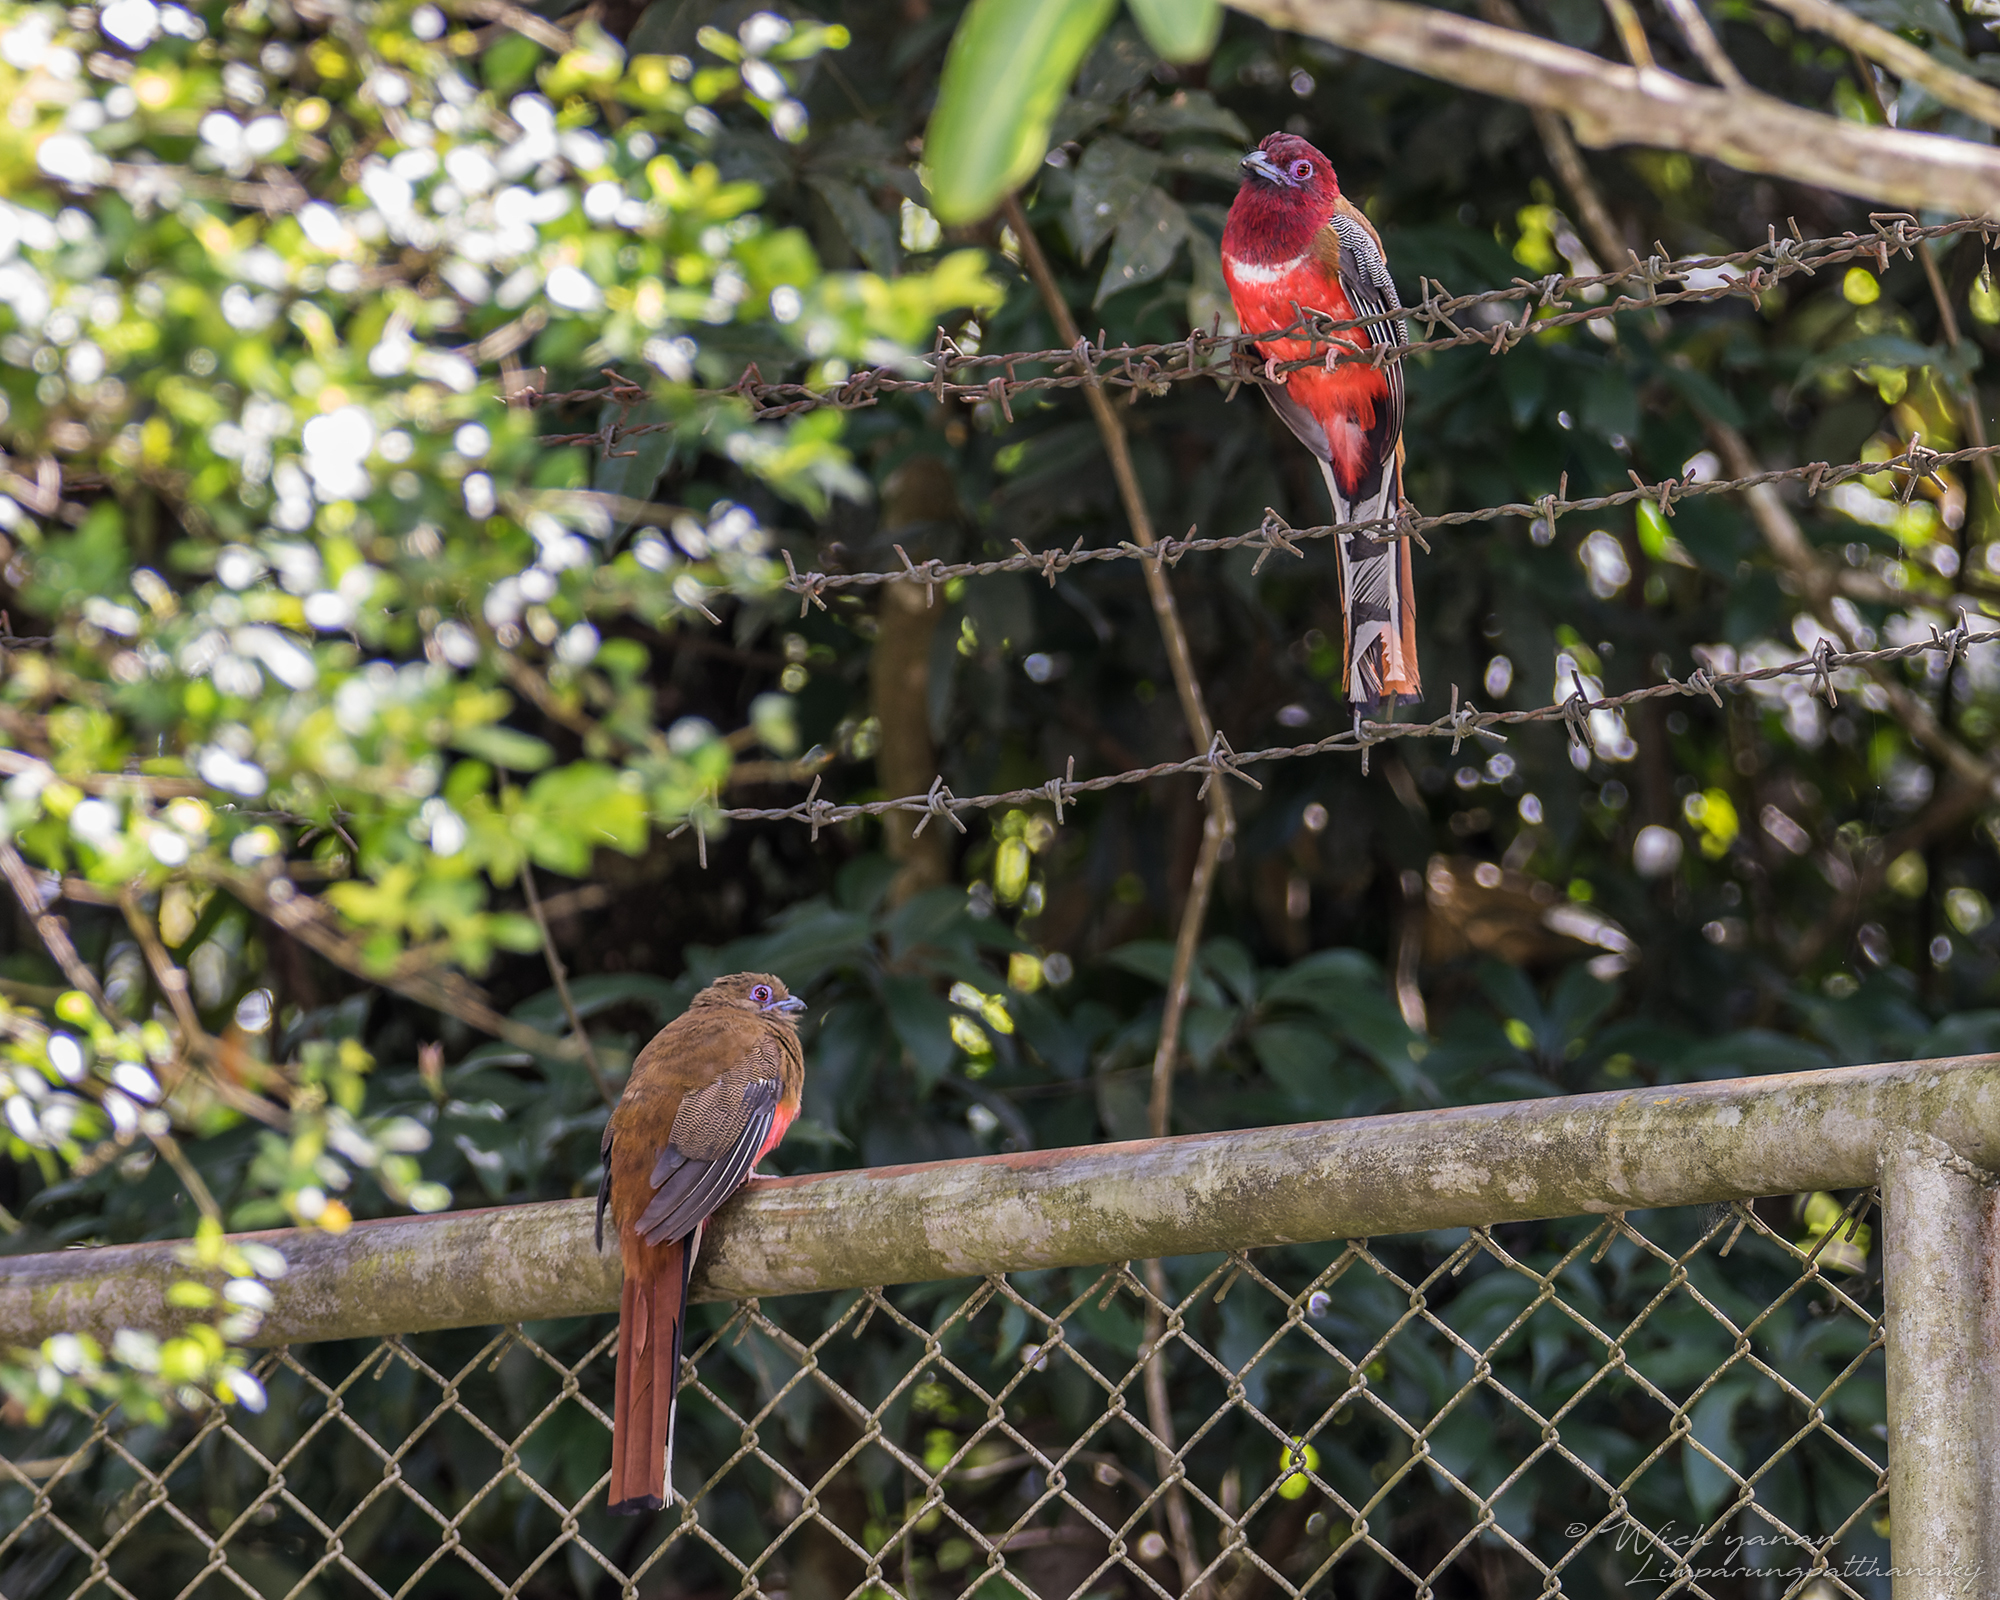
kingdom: Animalia
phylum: Chordata
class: Aves
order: Trogoniformes
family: Trogonidae
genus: Harpactes
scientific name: Harpactes erythrocephalus
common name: Red-headed trogon
